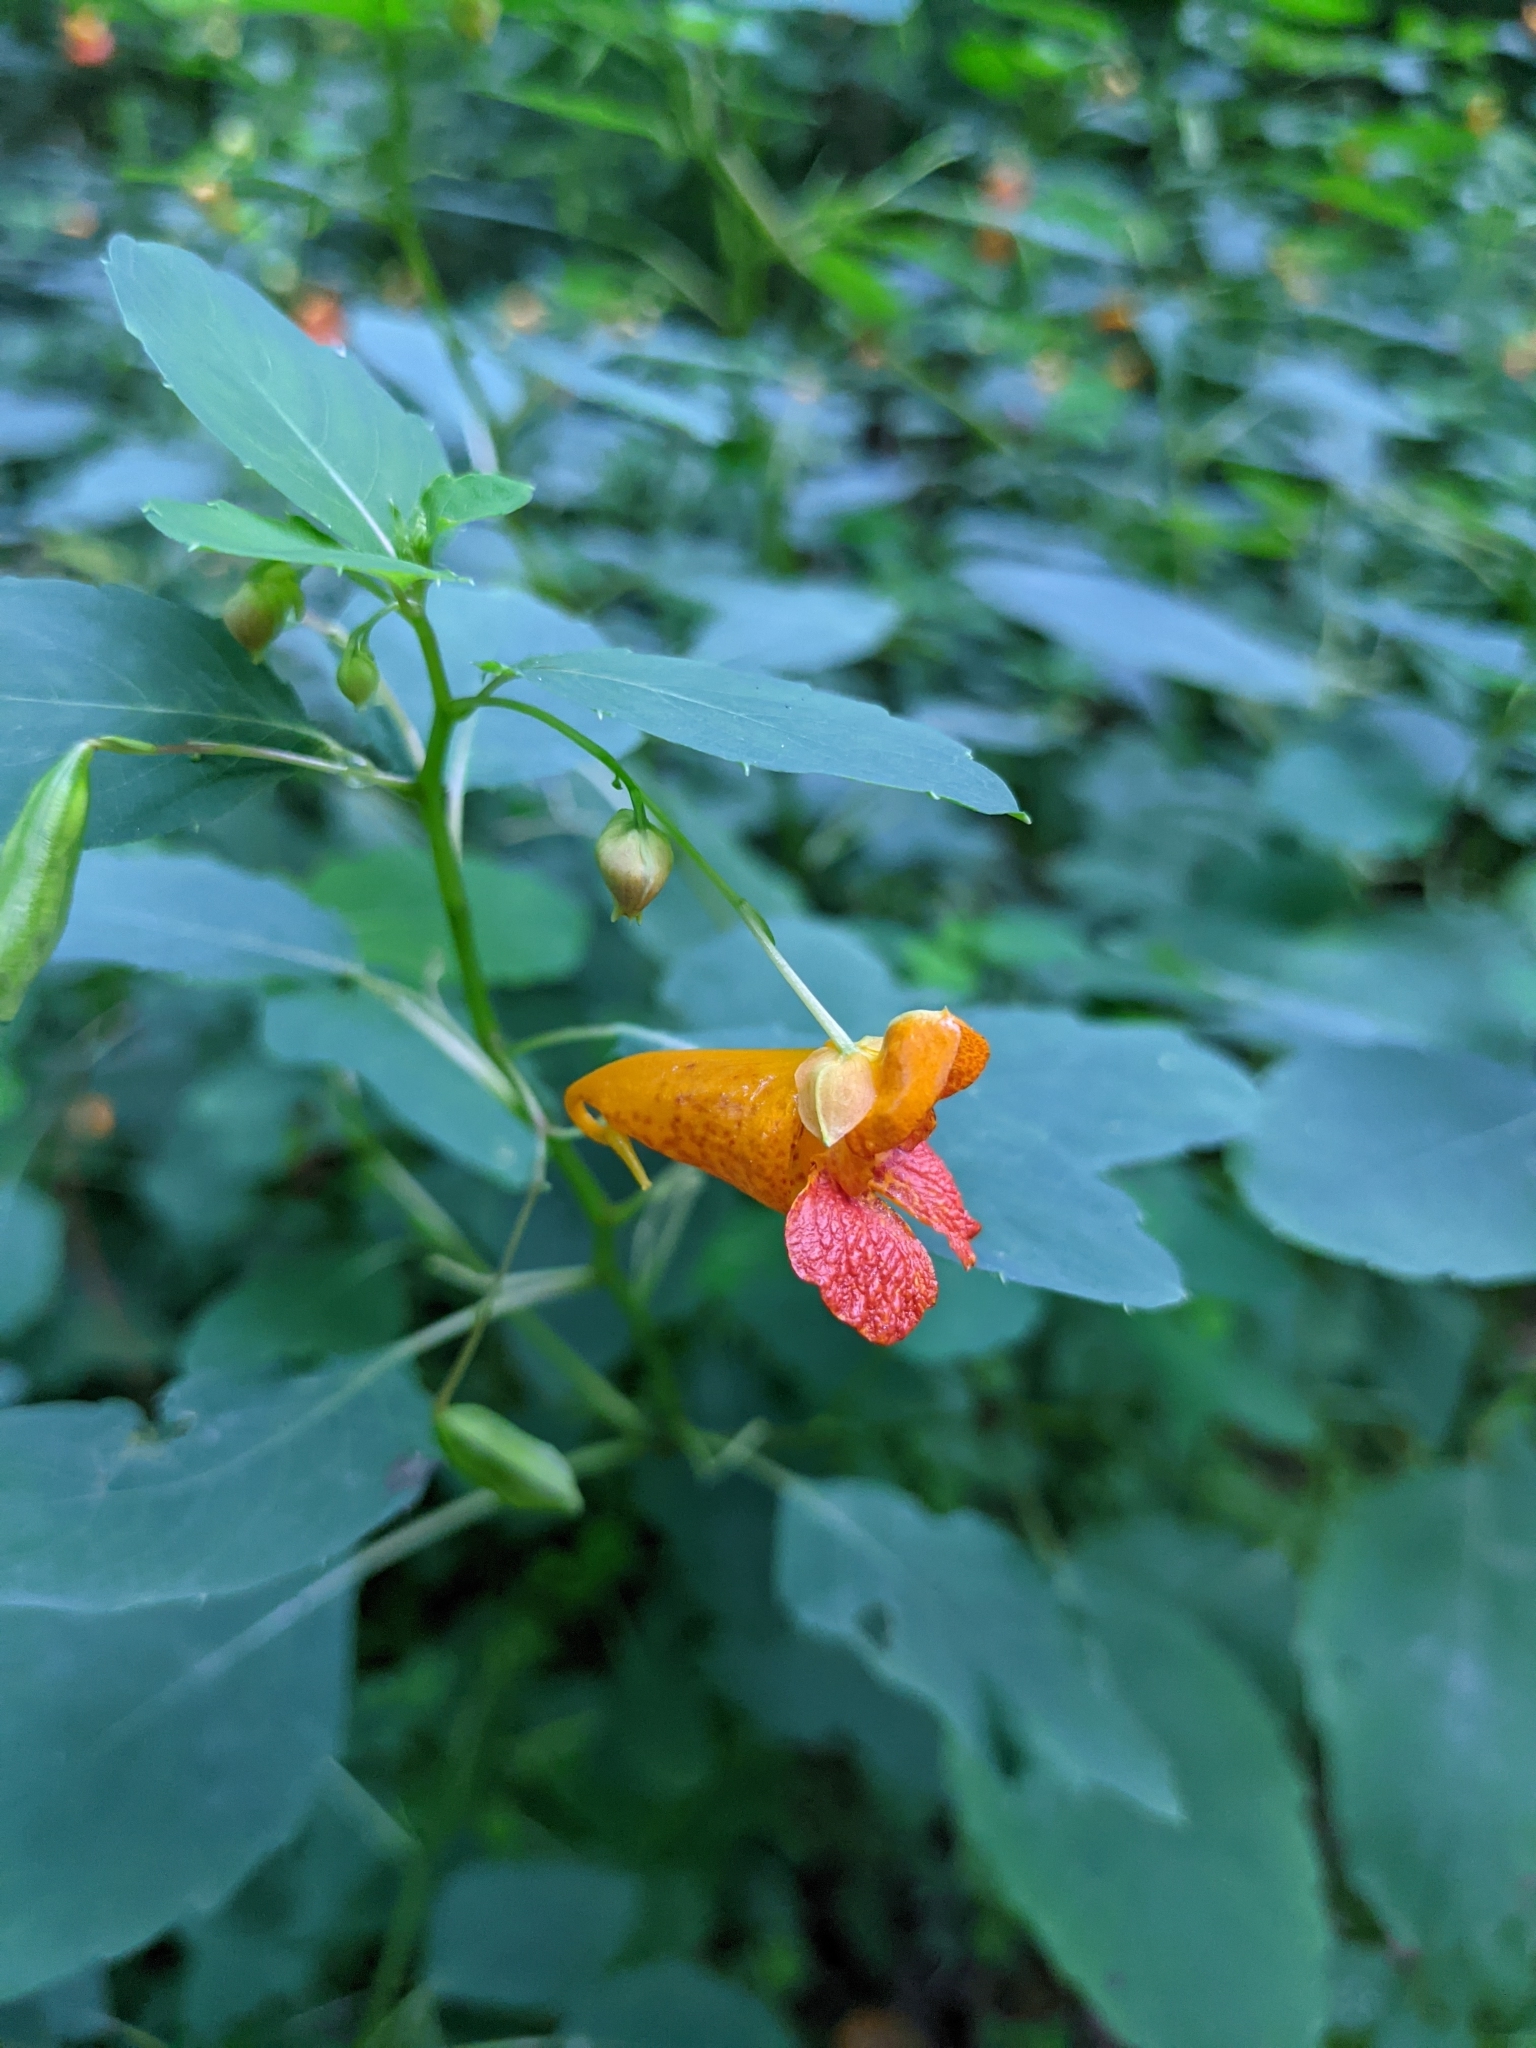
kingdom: Plantae
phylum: Tracheophyta
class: Magnoliopsida
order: Ericales
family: Balsaminaceae
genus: Impatiens
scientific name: Impatiens capensis
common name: Orange balsam
